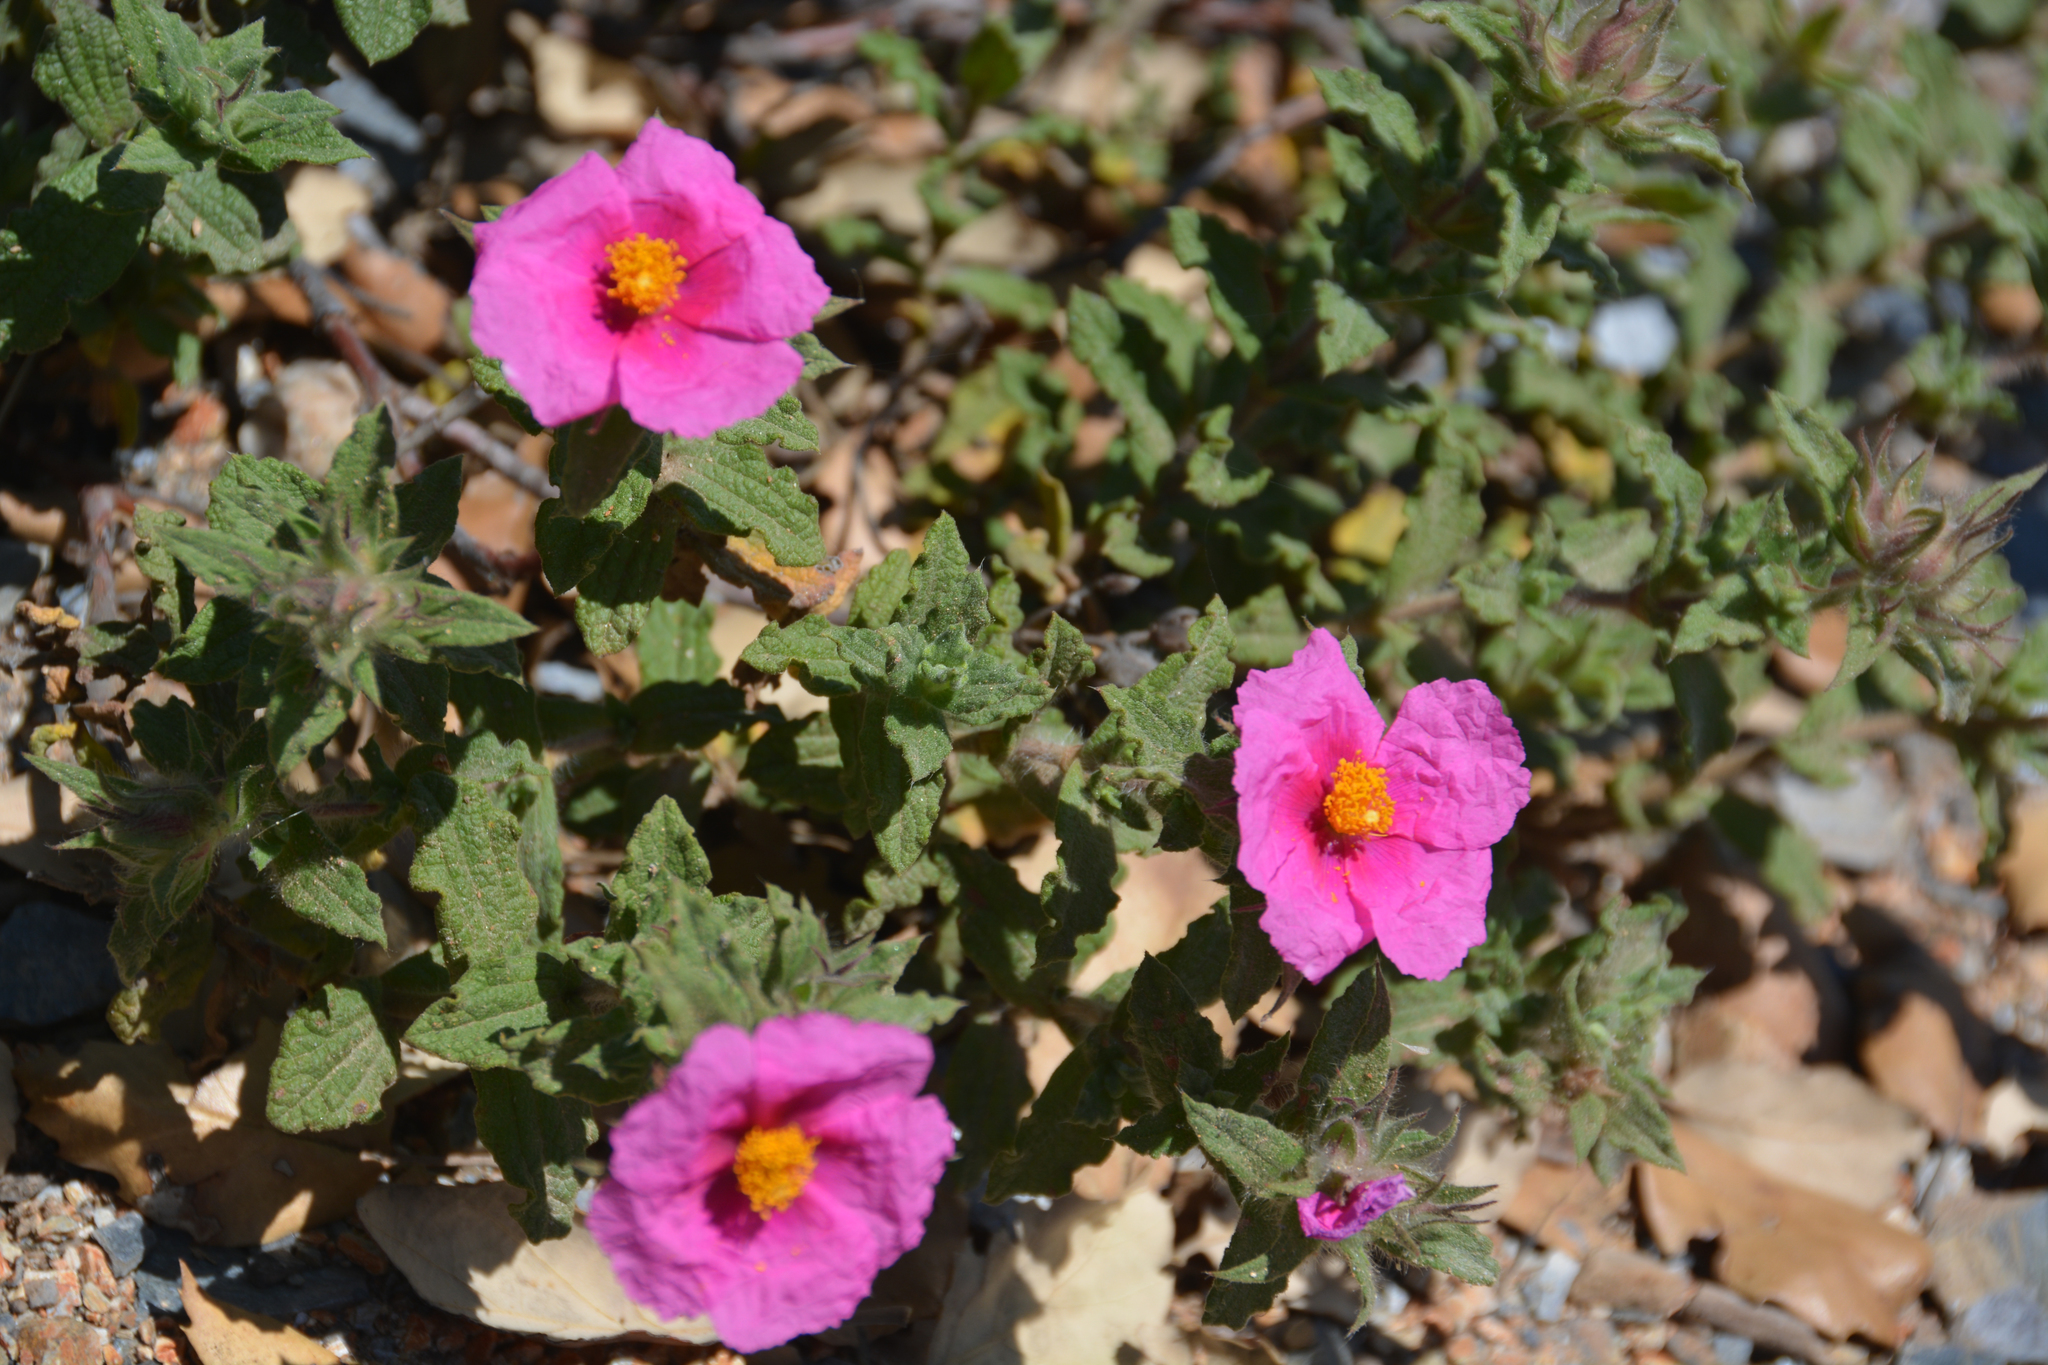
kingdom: Plantae
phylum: Tracheophyta
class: Magnoliopsida
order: Malvales
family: Cistaceae
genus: Cistus
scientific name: Cistus crispus
